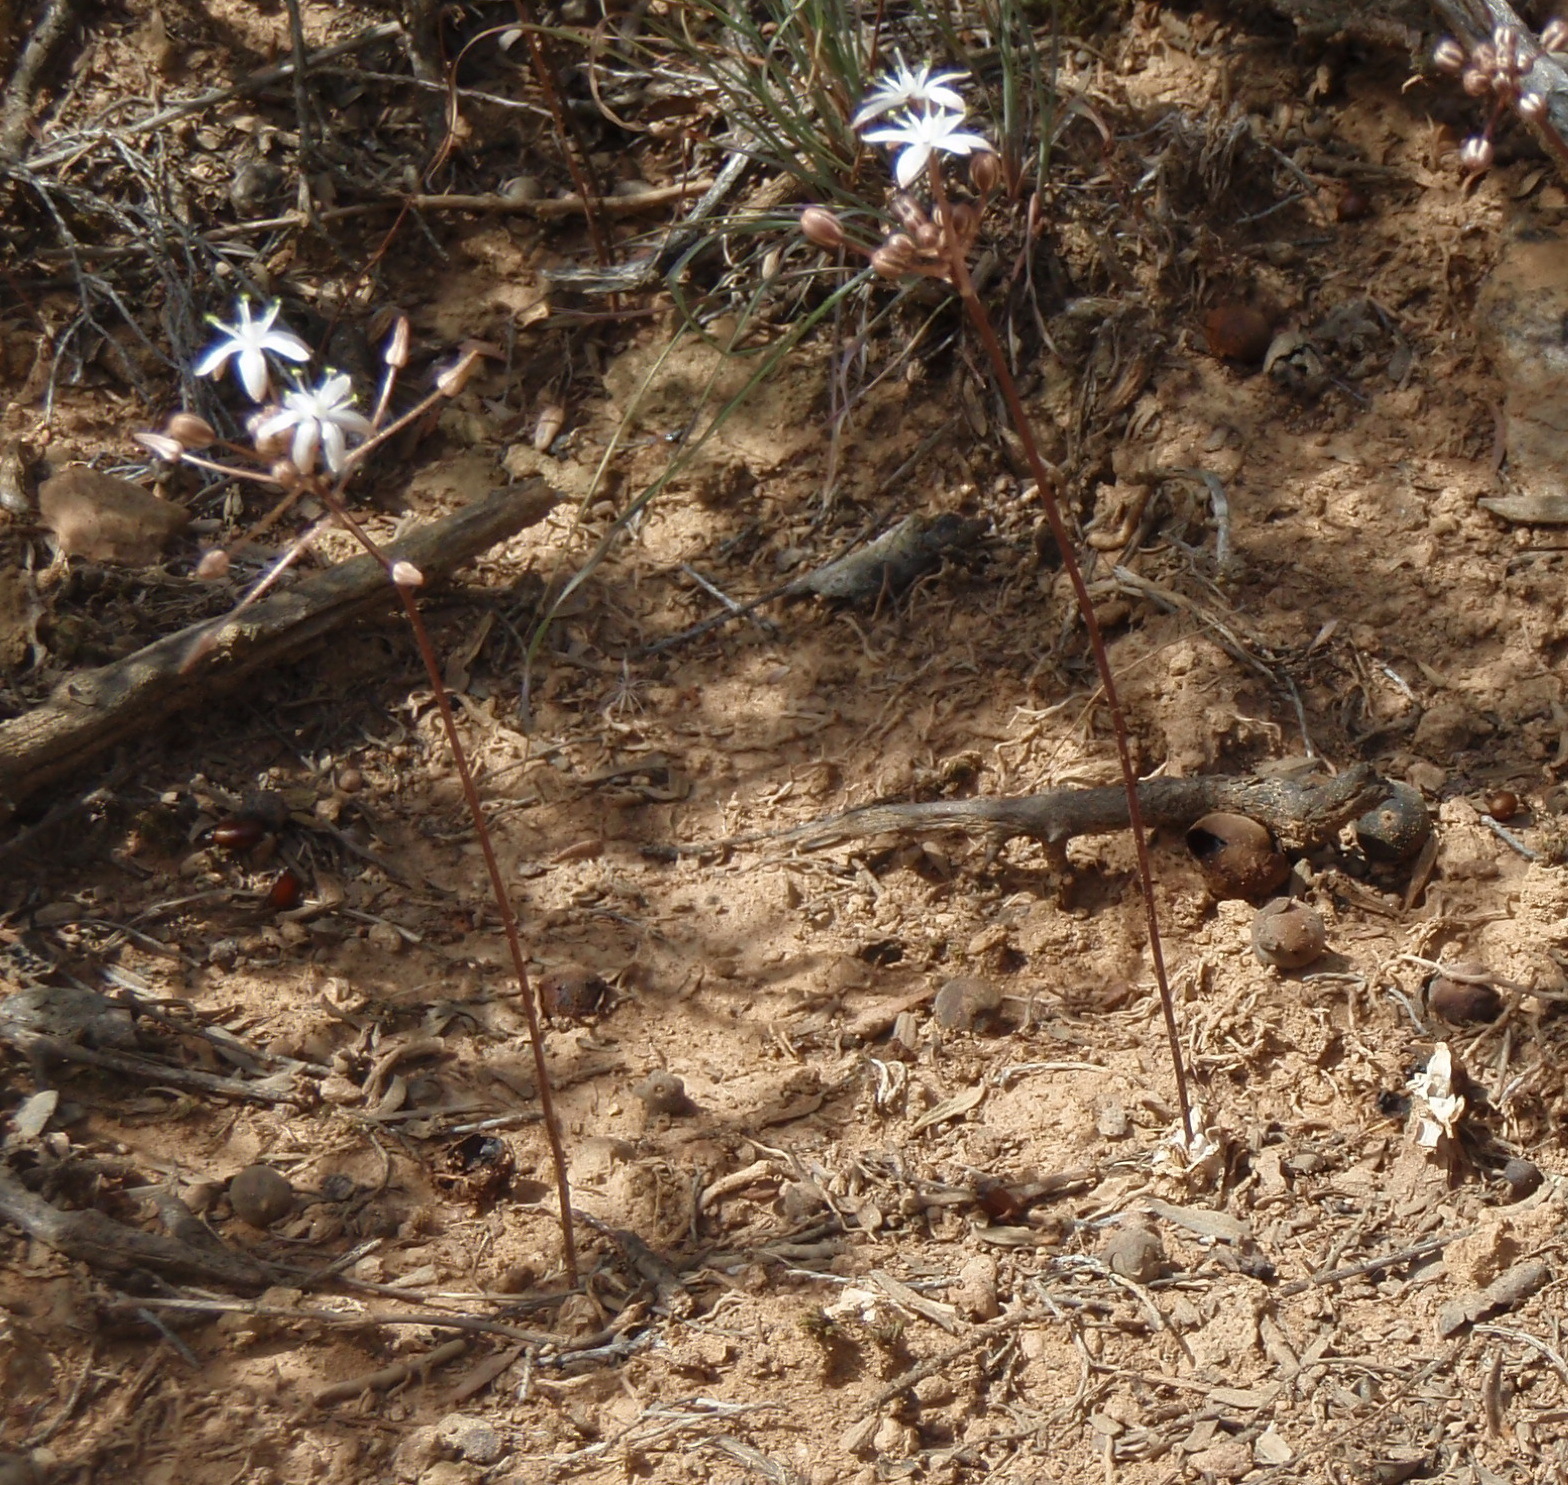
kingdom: Plantae
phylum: Tracheophyta
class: Liliopsida
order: Asparagales
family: Asparagaceae
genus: Fusifilum
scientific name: Fusifilum physodes
